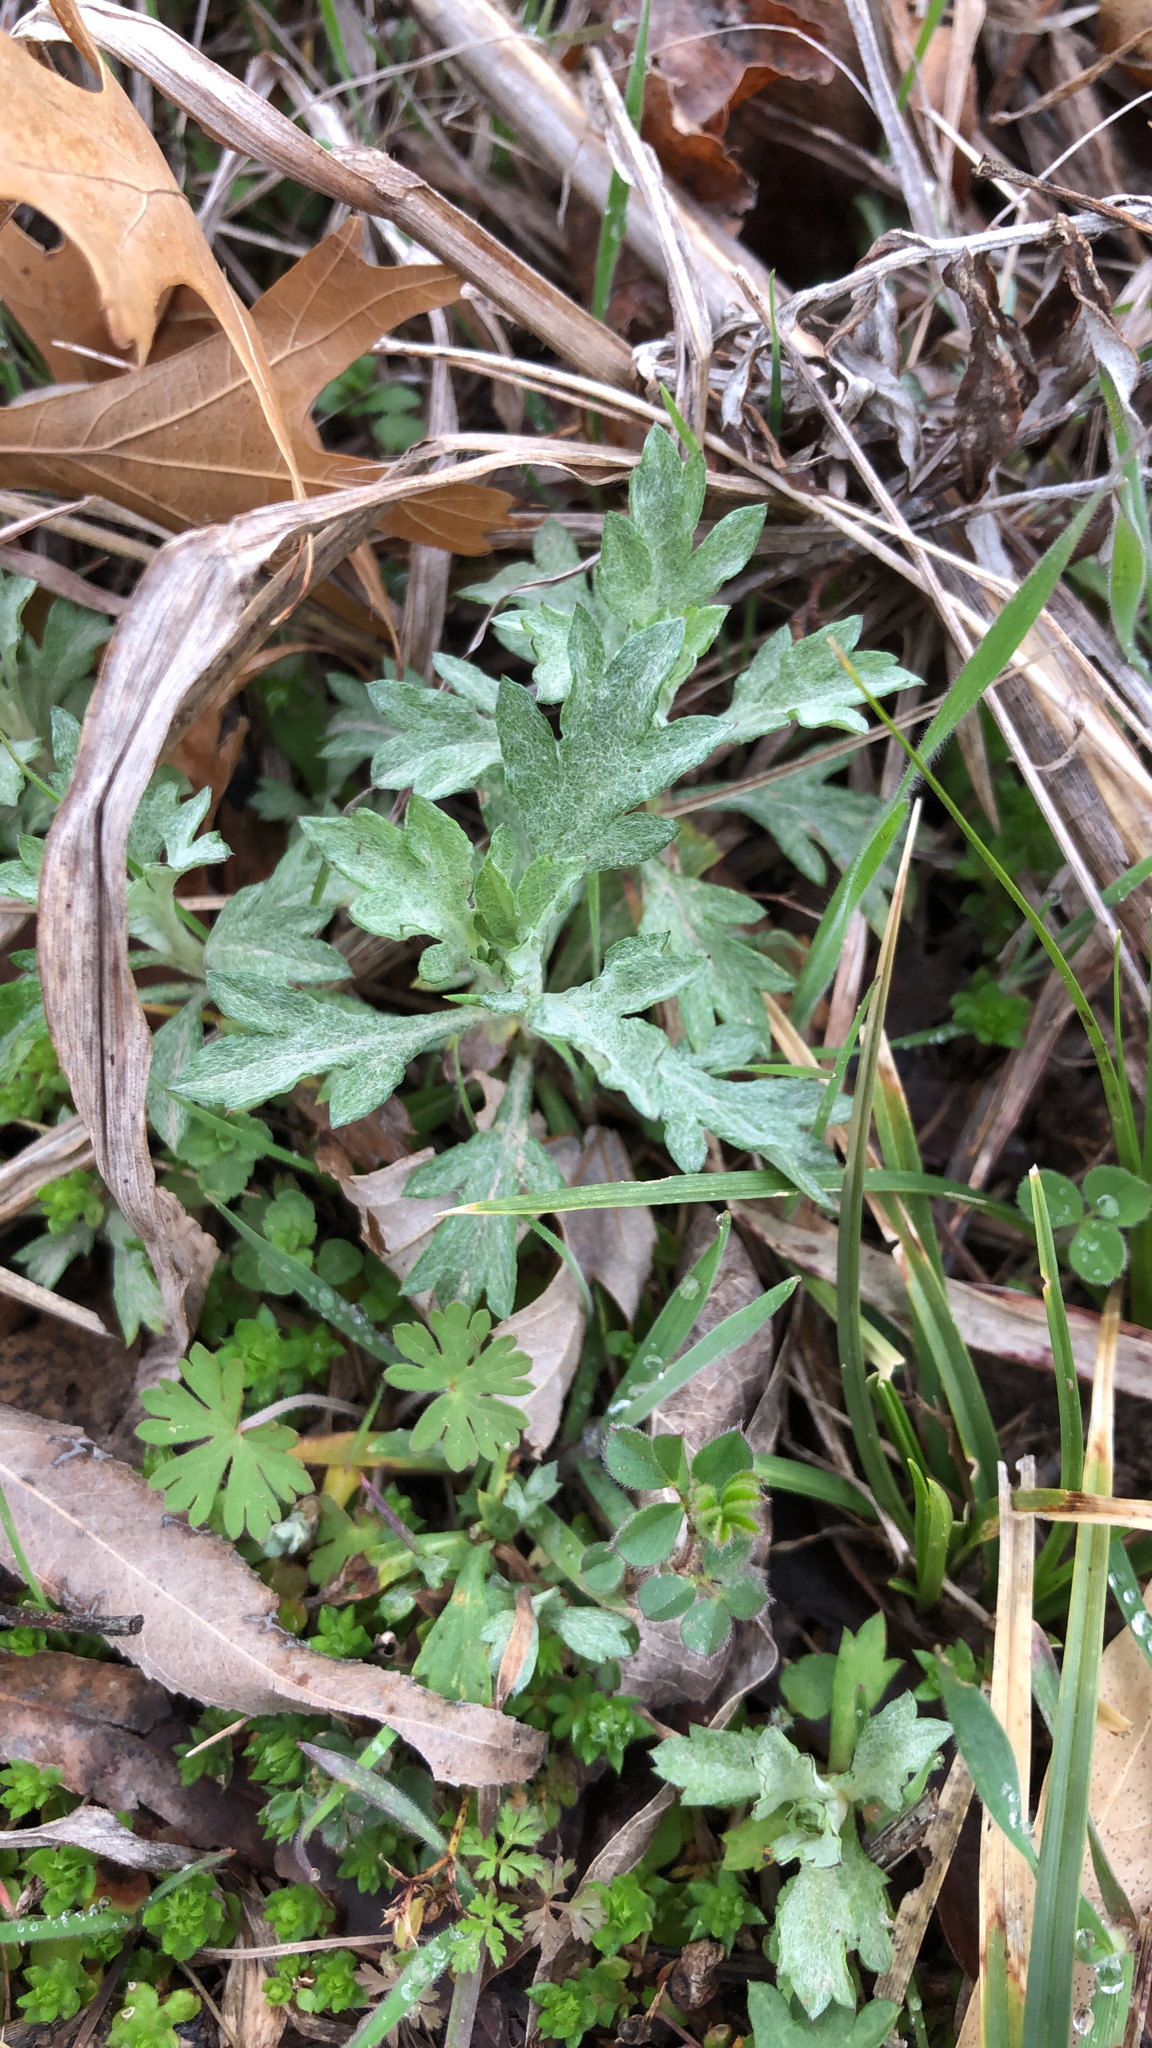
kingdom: Plantae
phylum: Tracheophyta
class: Magnoliopsida
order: Asterales
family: Asteraceae
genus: Artemisia
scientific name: Artemisia ludoviciana
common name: Western mugwort
